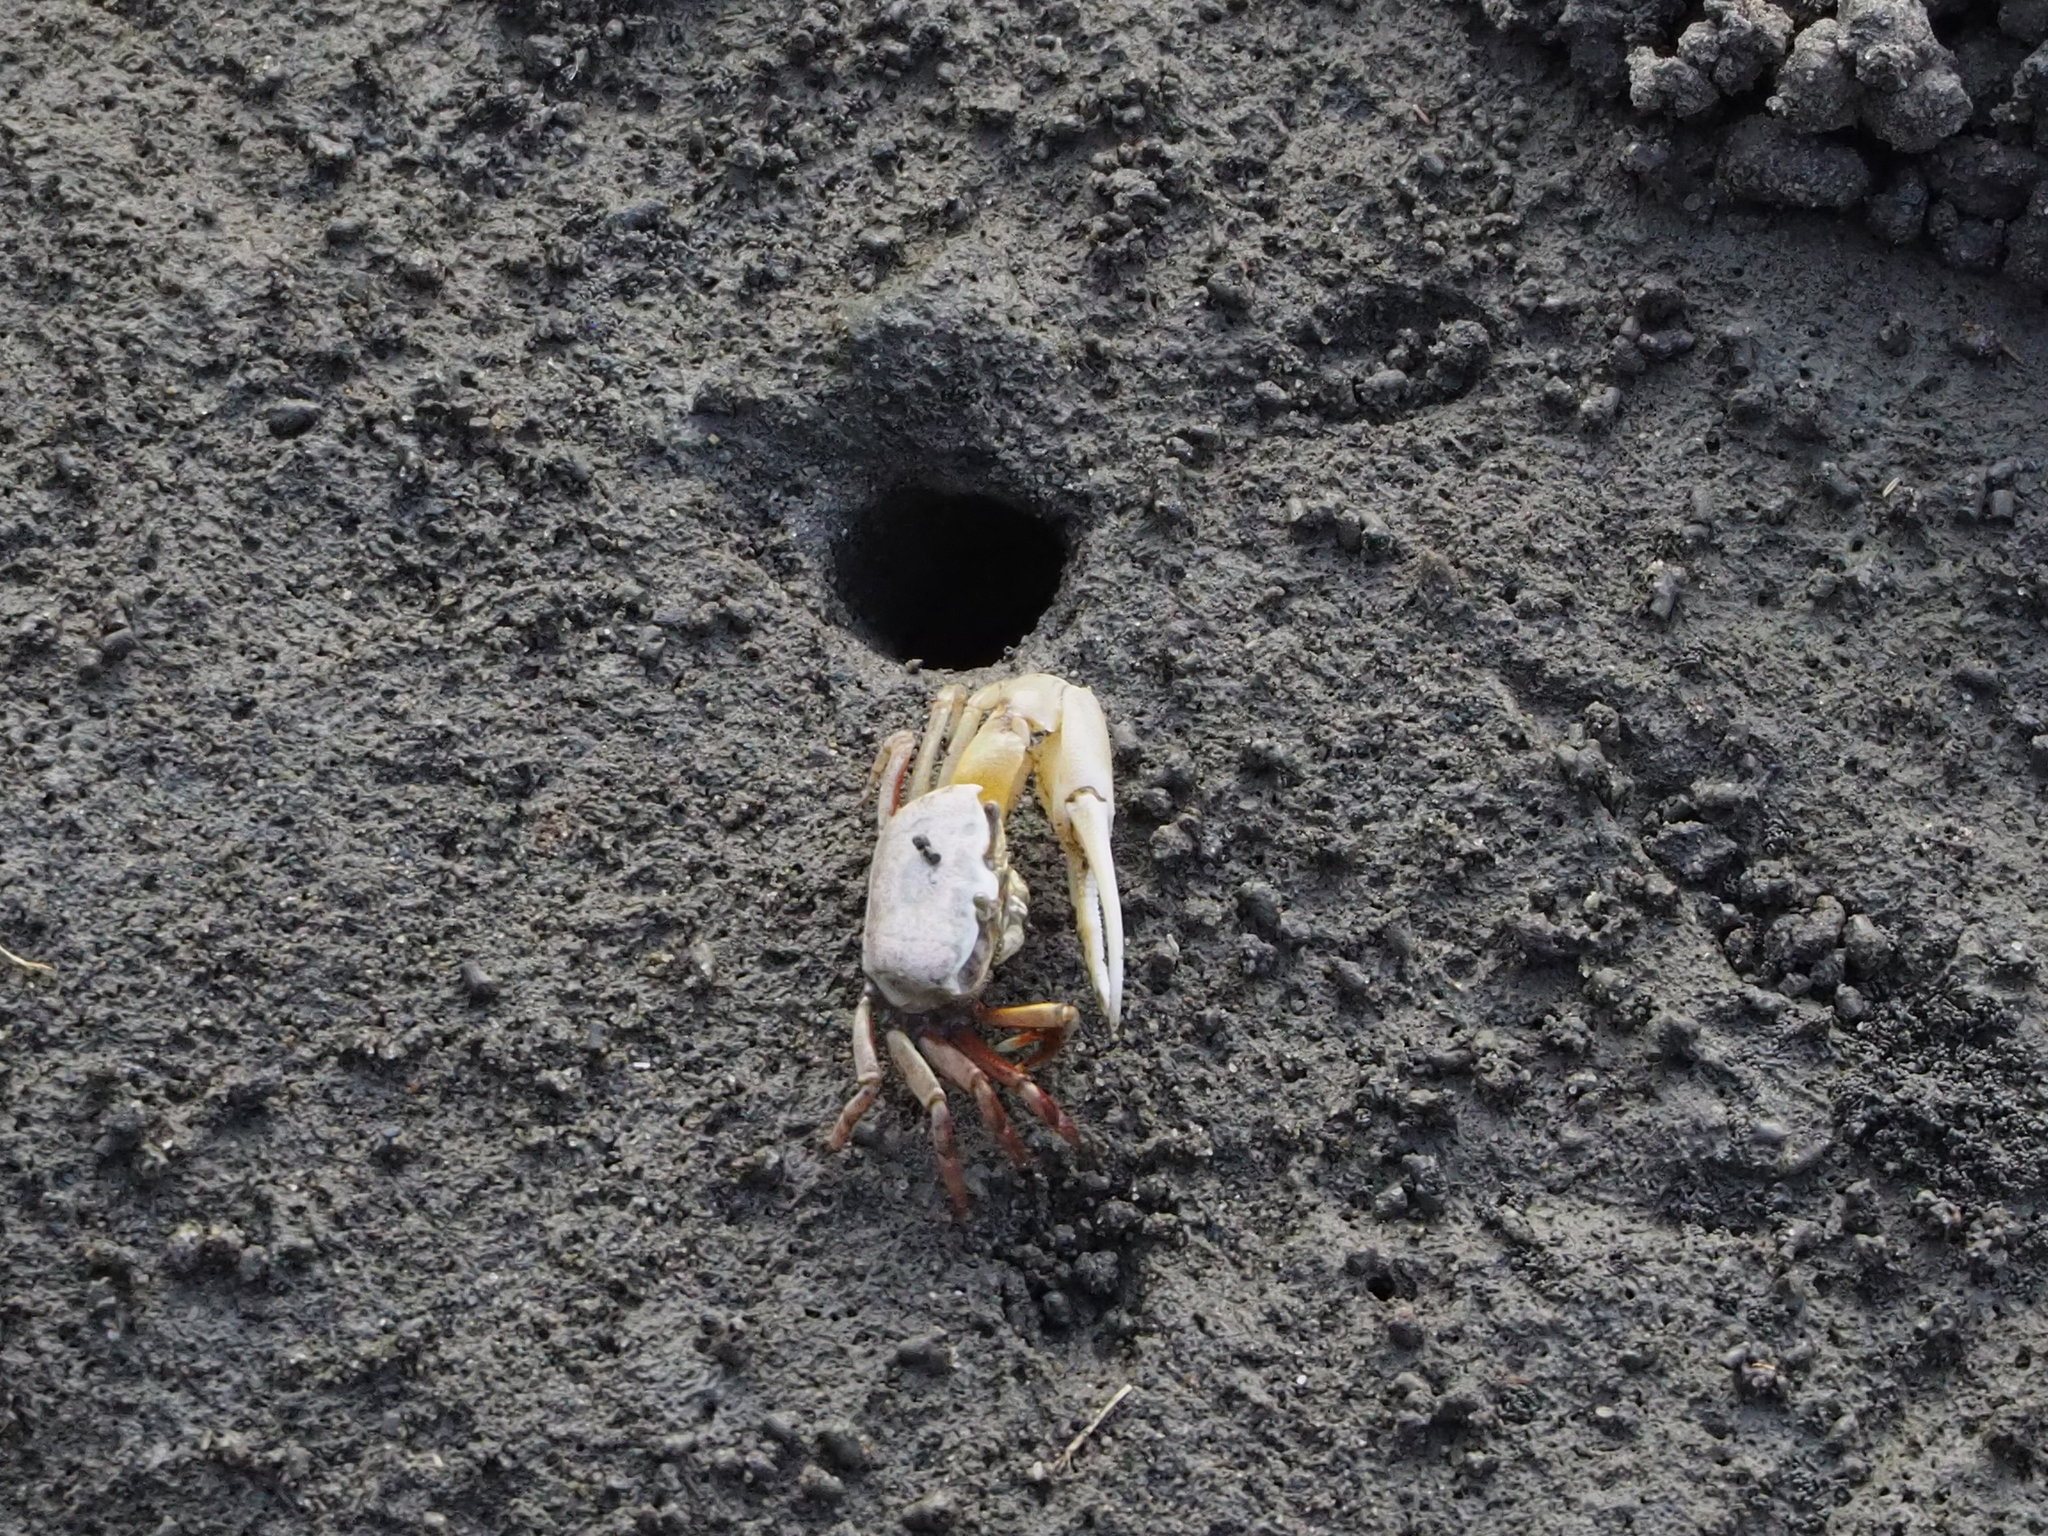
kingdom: Animalia
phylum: Arthropoda
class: Malacostraca
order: Decapoda
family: Ocypodidae
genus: Austruca
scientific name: Austruca lactea
